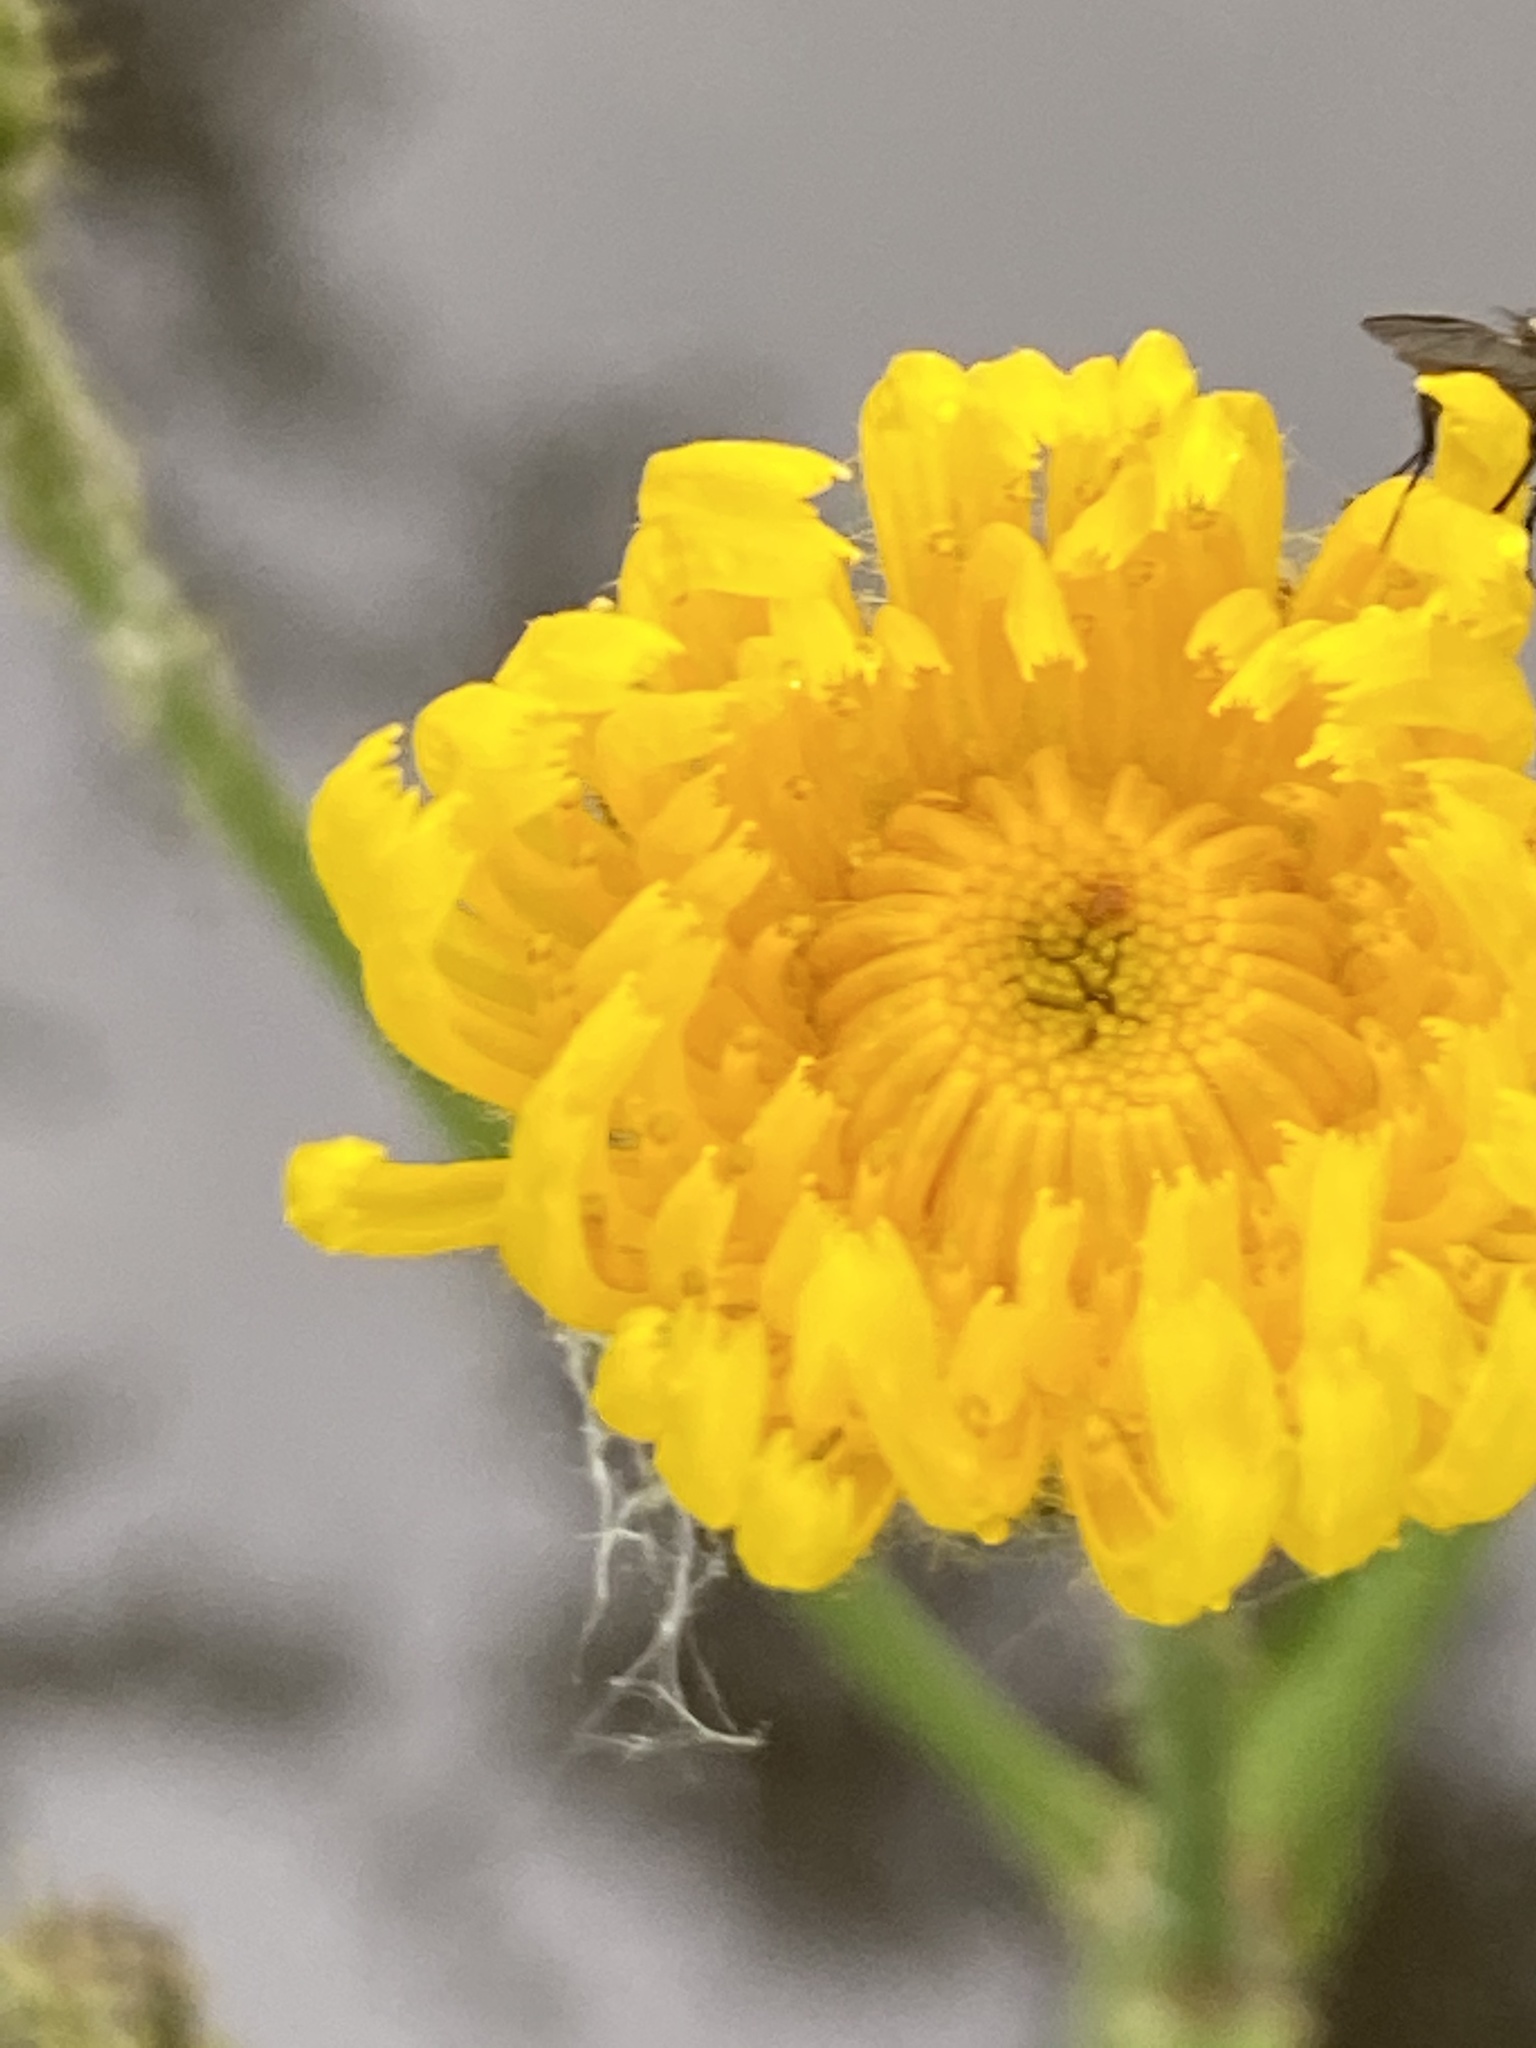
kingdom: Plantae
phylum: Tracheophyta
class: Magnoliopsida
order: Asterales
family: Asteraceae
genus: Sonchus
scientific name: Sonchus arvensis
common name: Perennial sow-thistle
